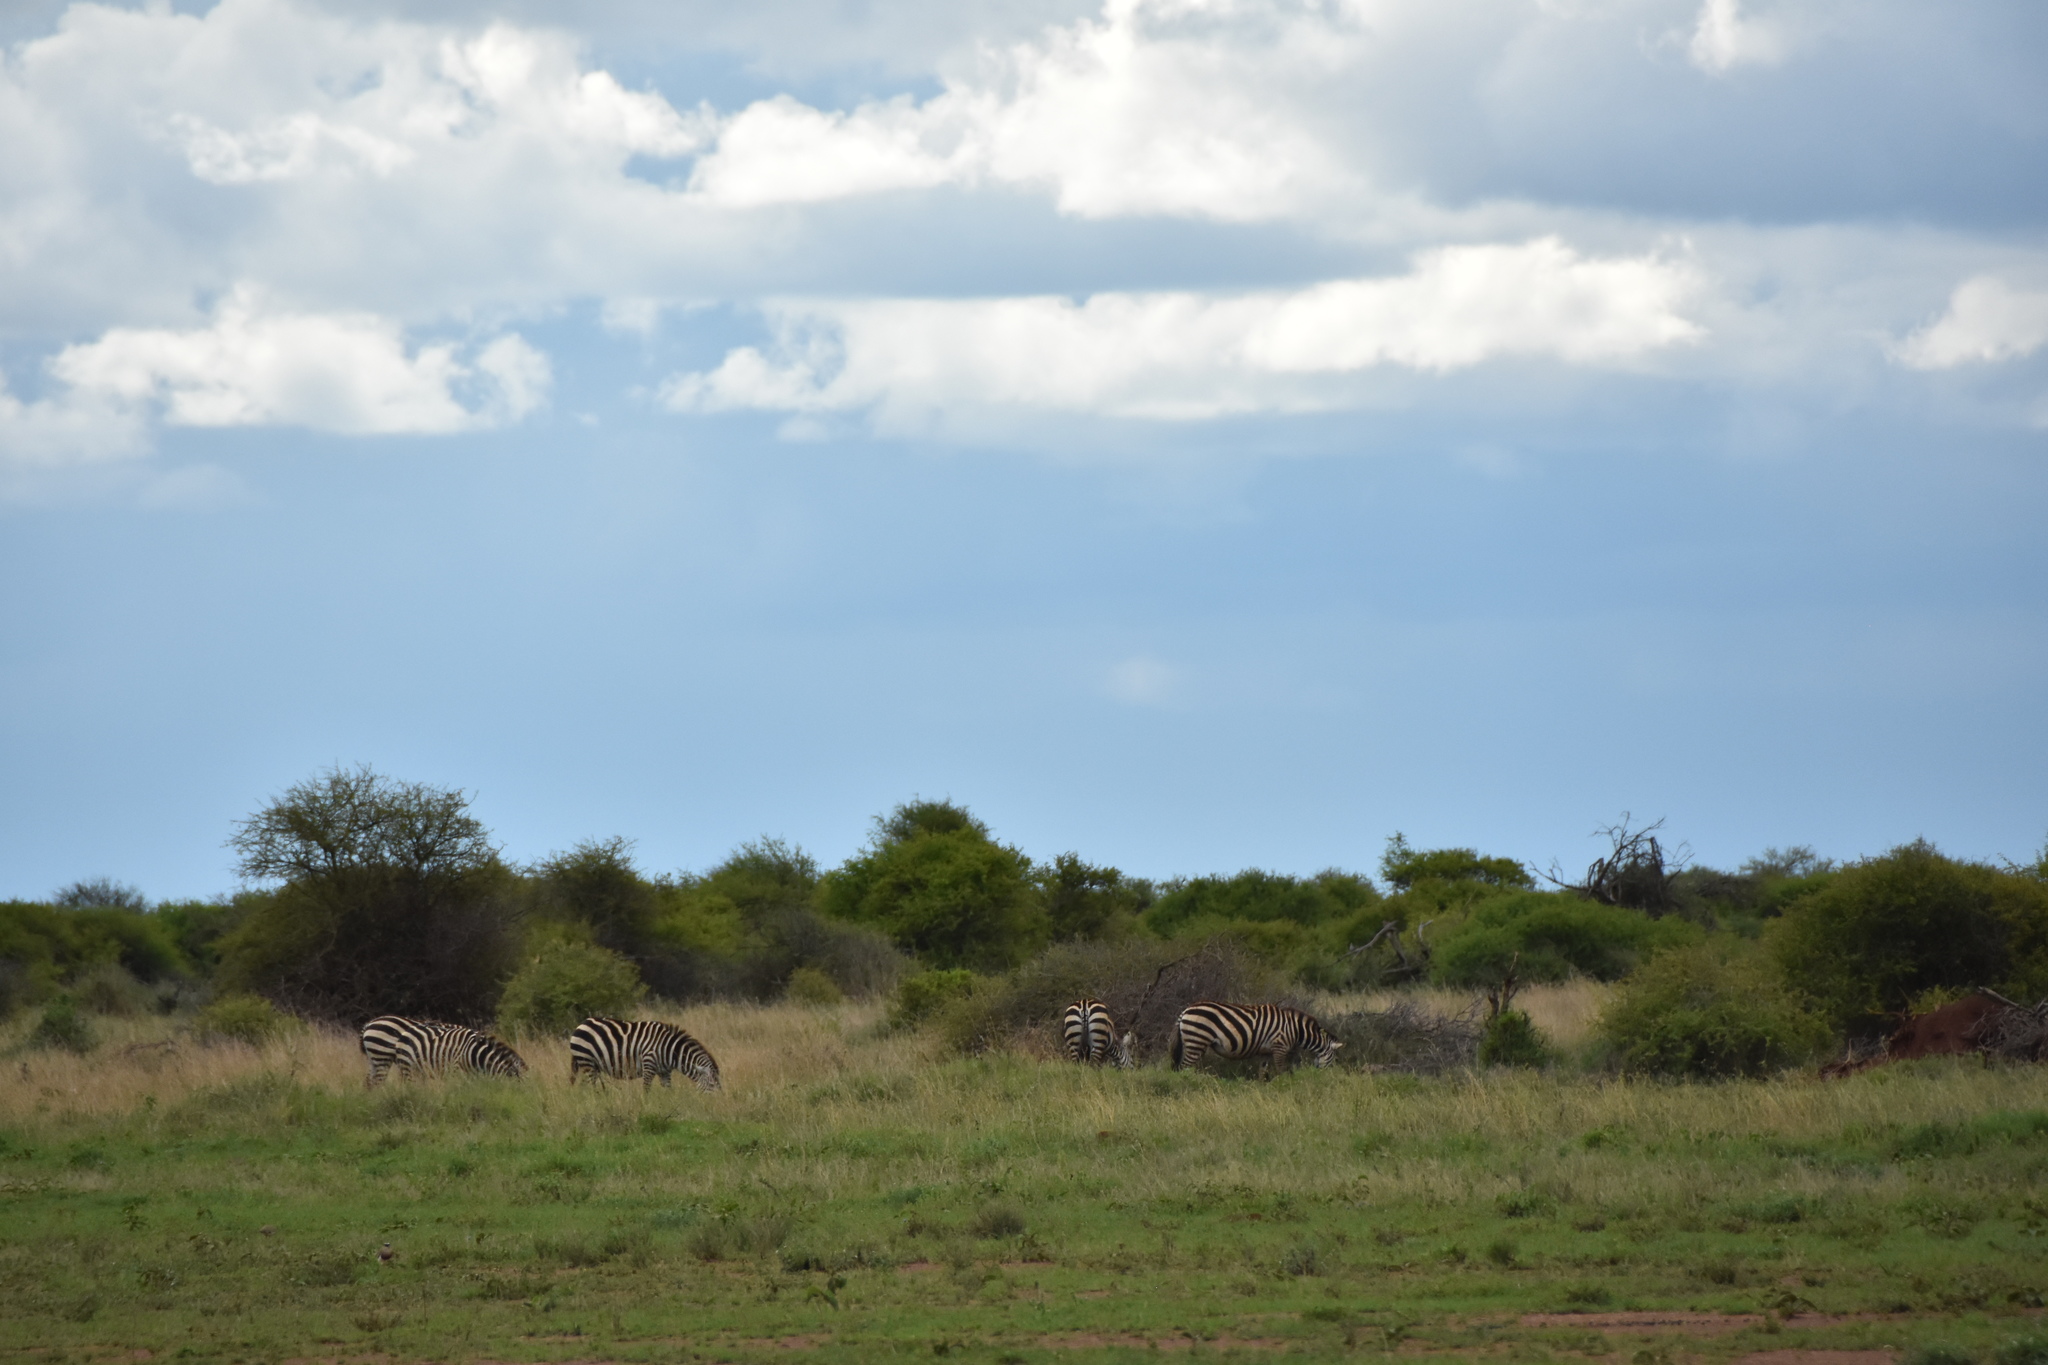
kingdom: Animalia
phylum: Chordata
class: Mammalia
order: Perissodactyla
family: Equidae
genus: Equus
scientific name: Equus quagga
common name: Plains zebra
